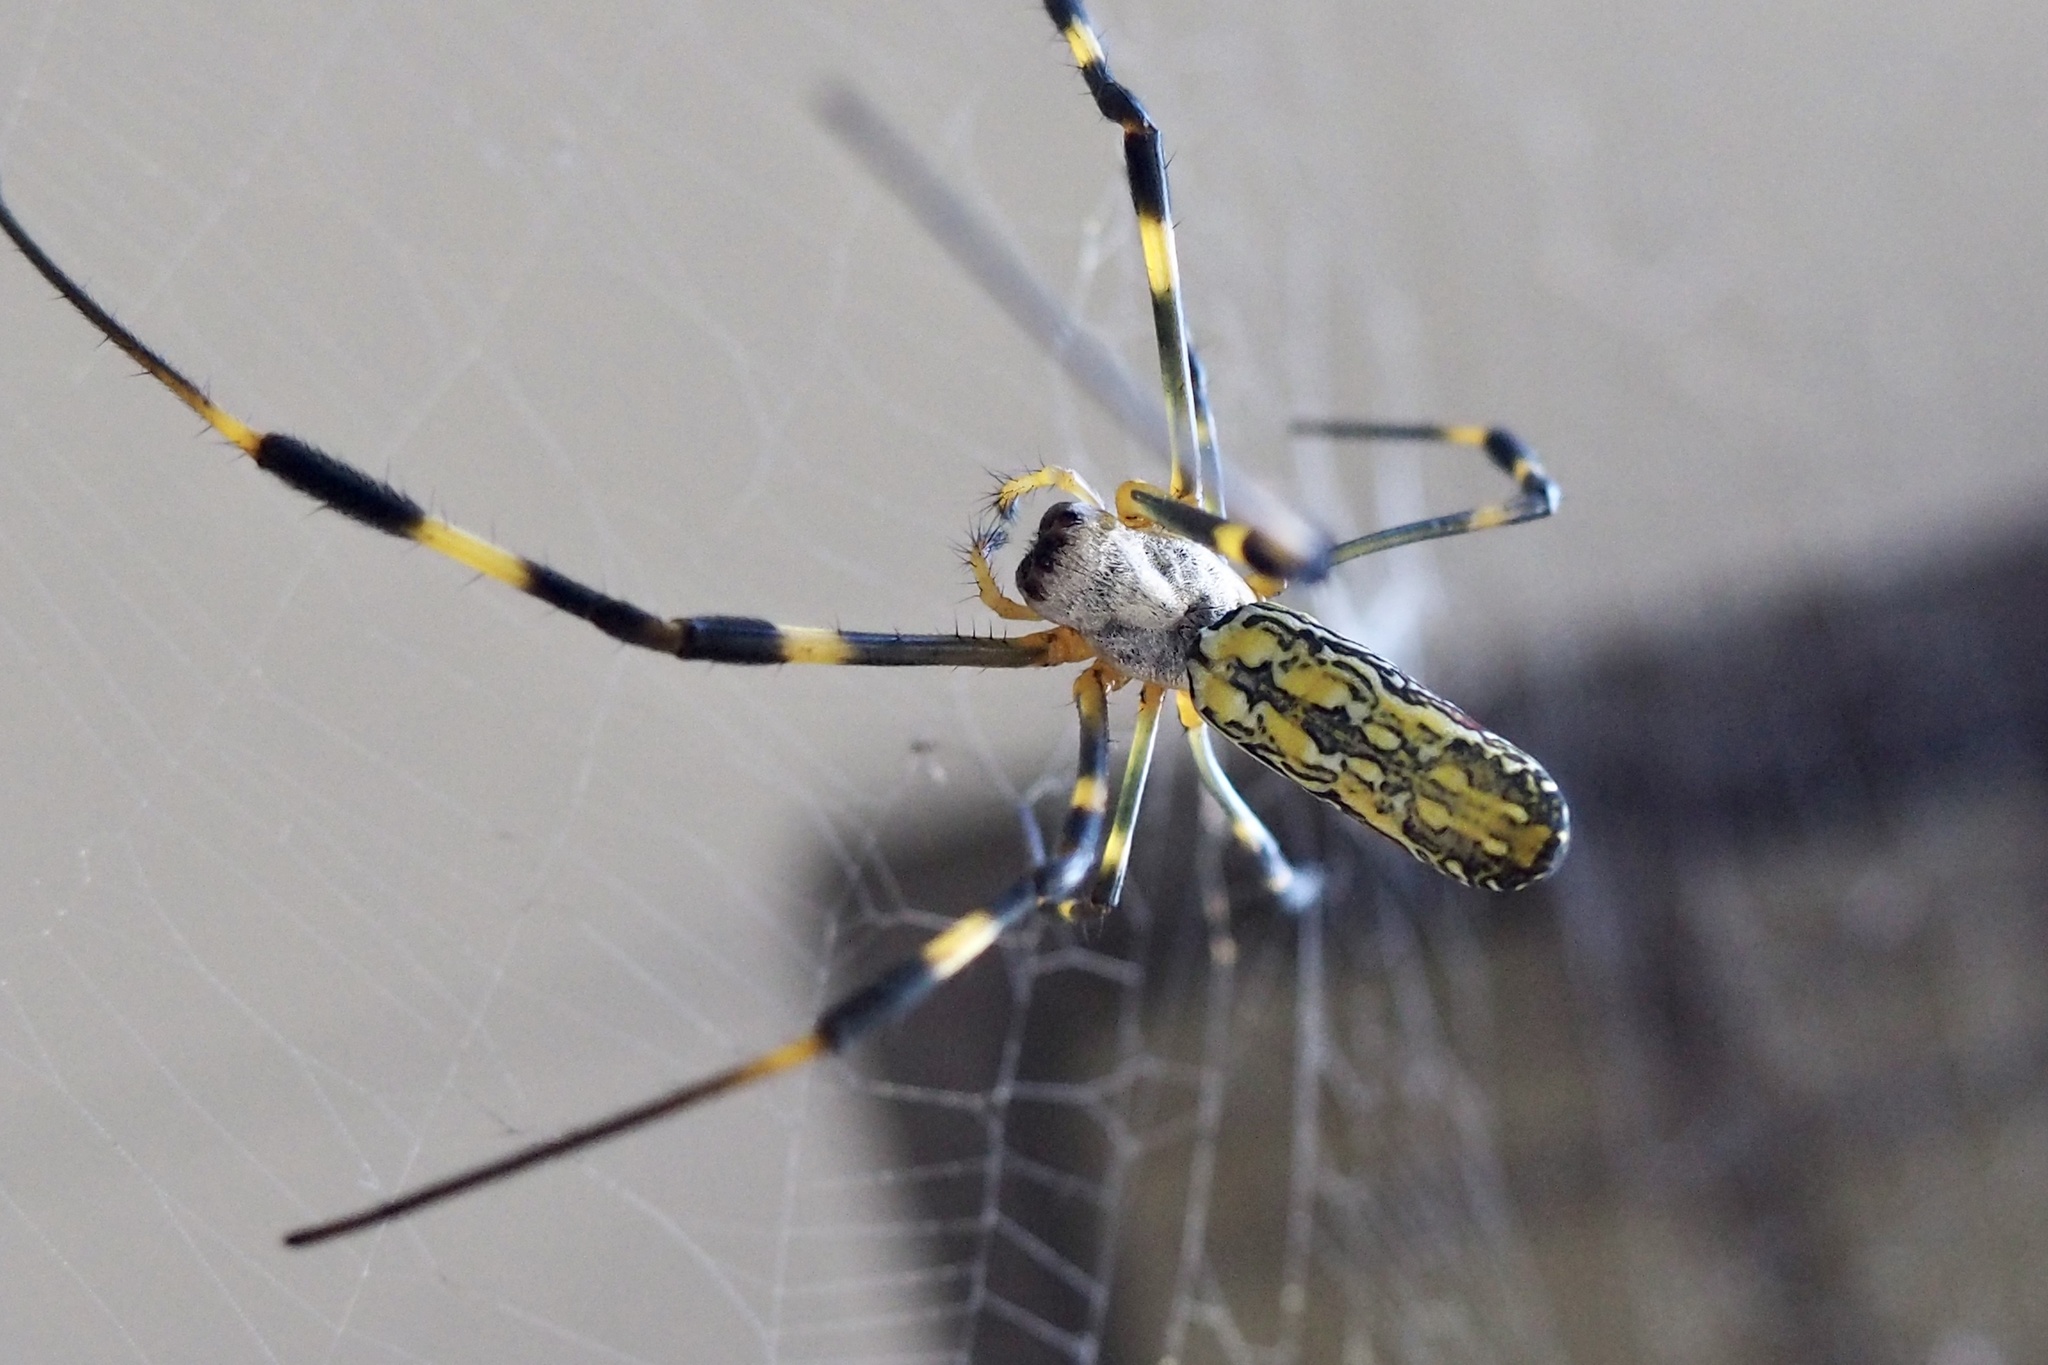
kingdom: Animalia
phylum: Arthropoda
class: Arachnida
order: Araneae
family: Araneidae
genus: Trichonephila
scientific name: Trichonephila clavata
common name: Jorō spider
